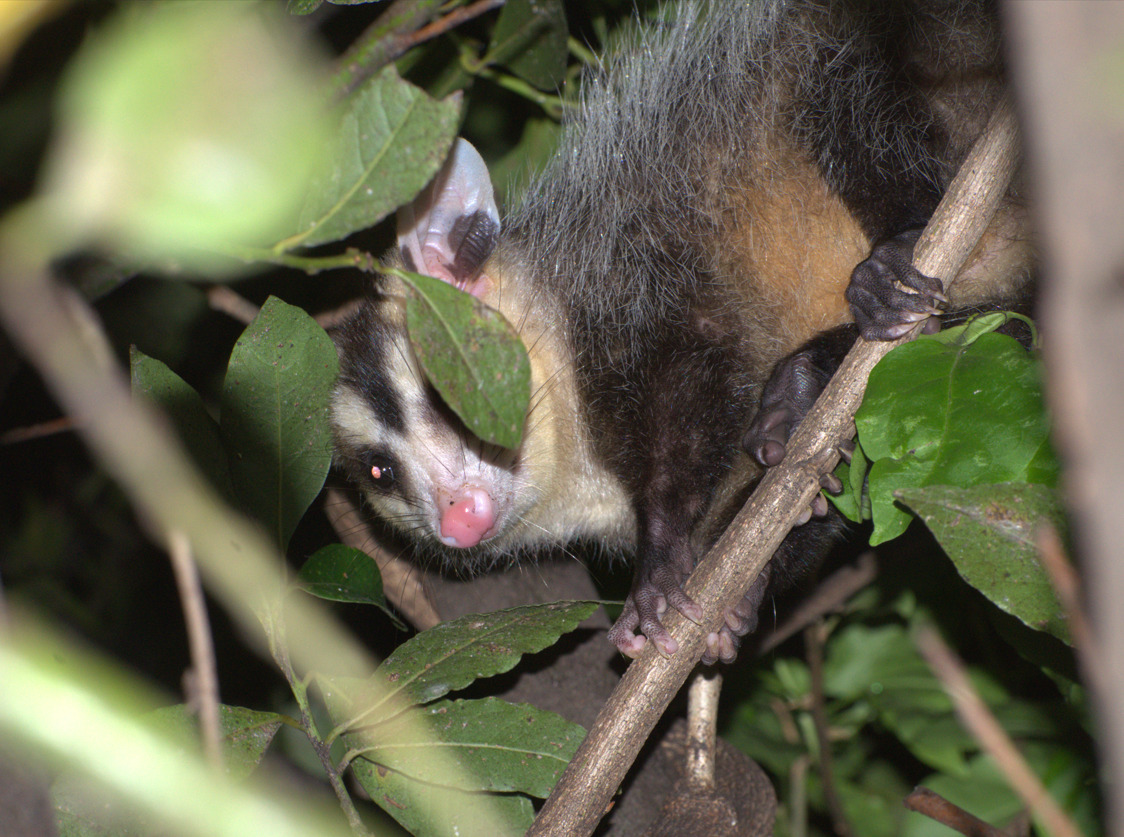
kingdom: Animalia
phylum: Chordata
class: Mammalia
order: Didelphimorphia
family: Didelphidae
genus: Didelphis
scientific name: Didelphis albiventris
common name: White-eared opossum
